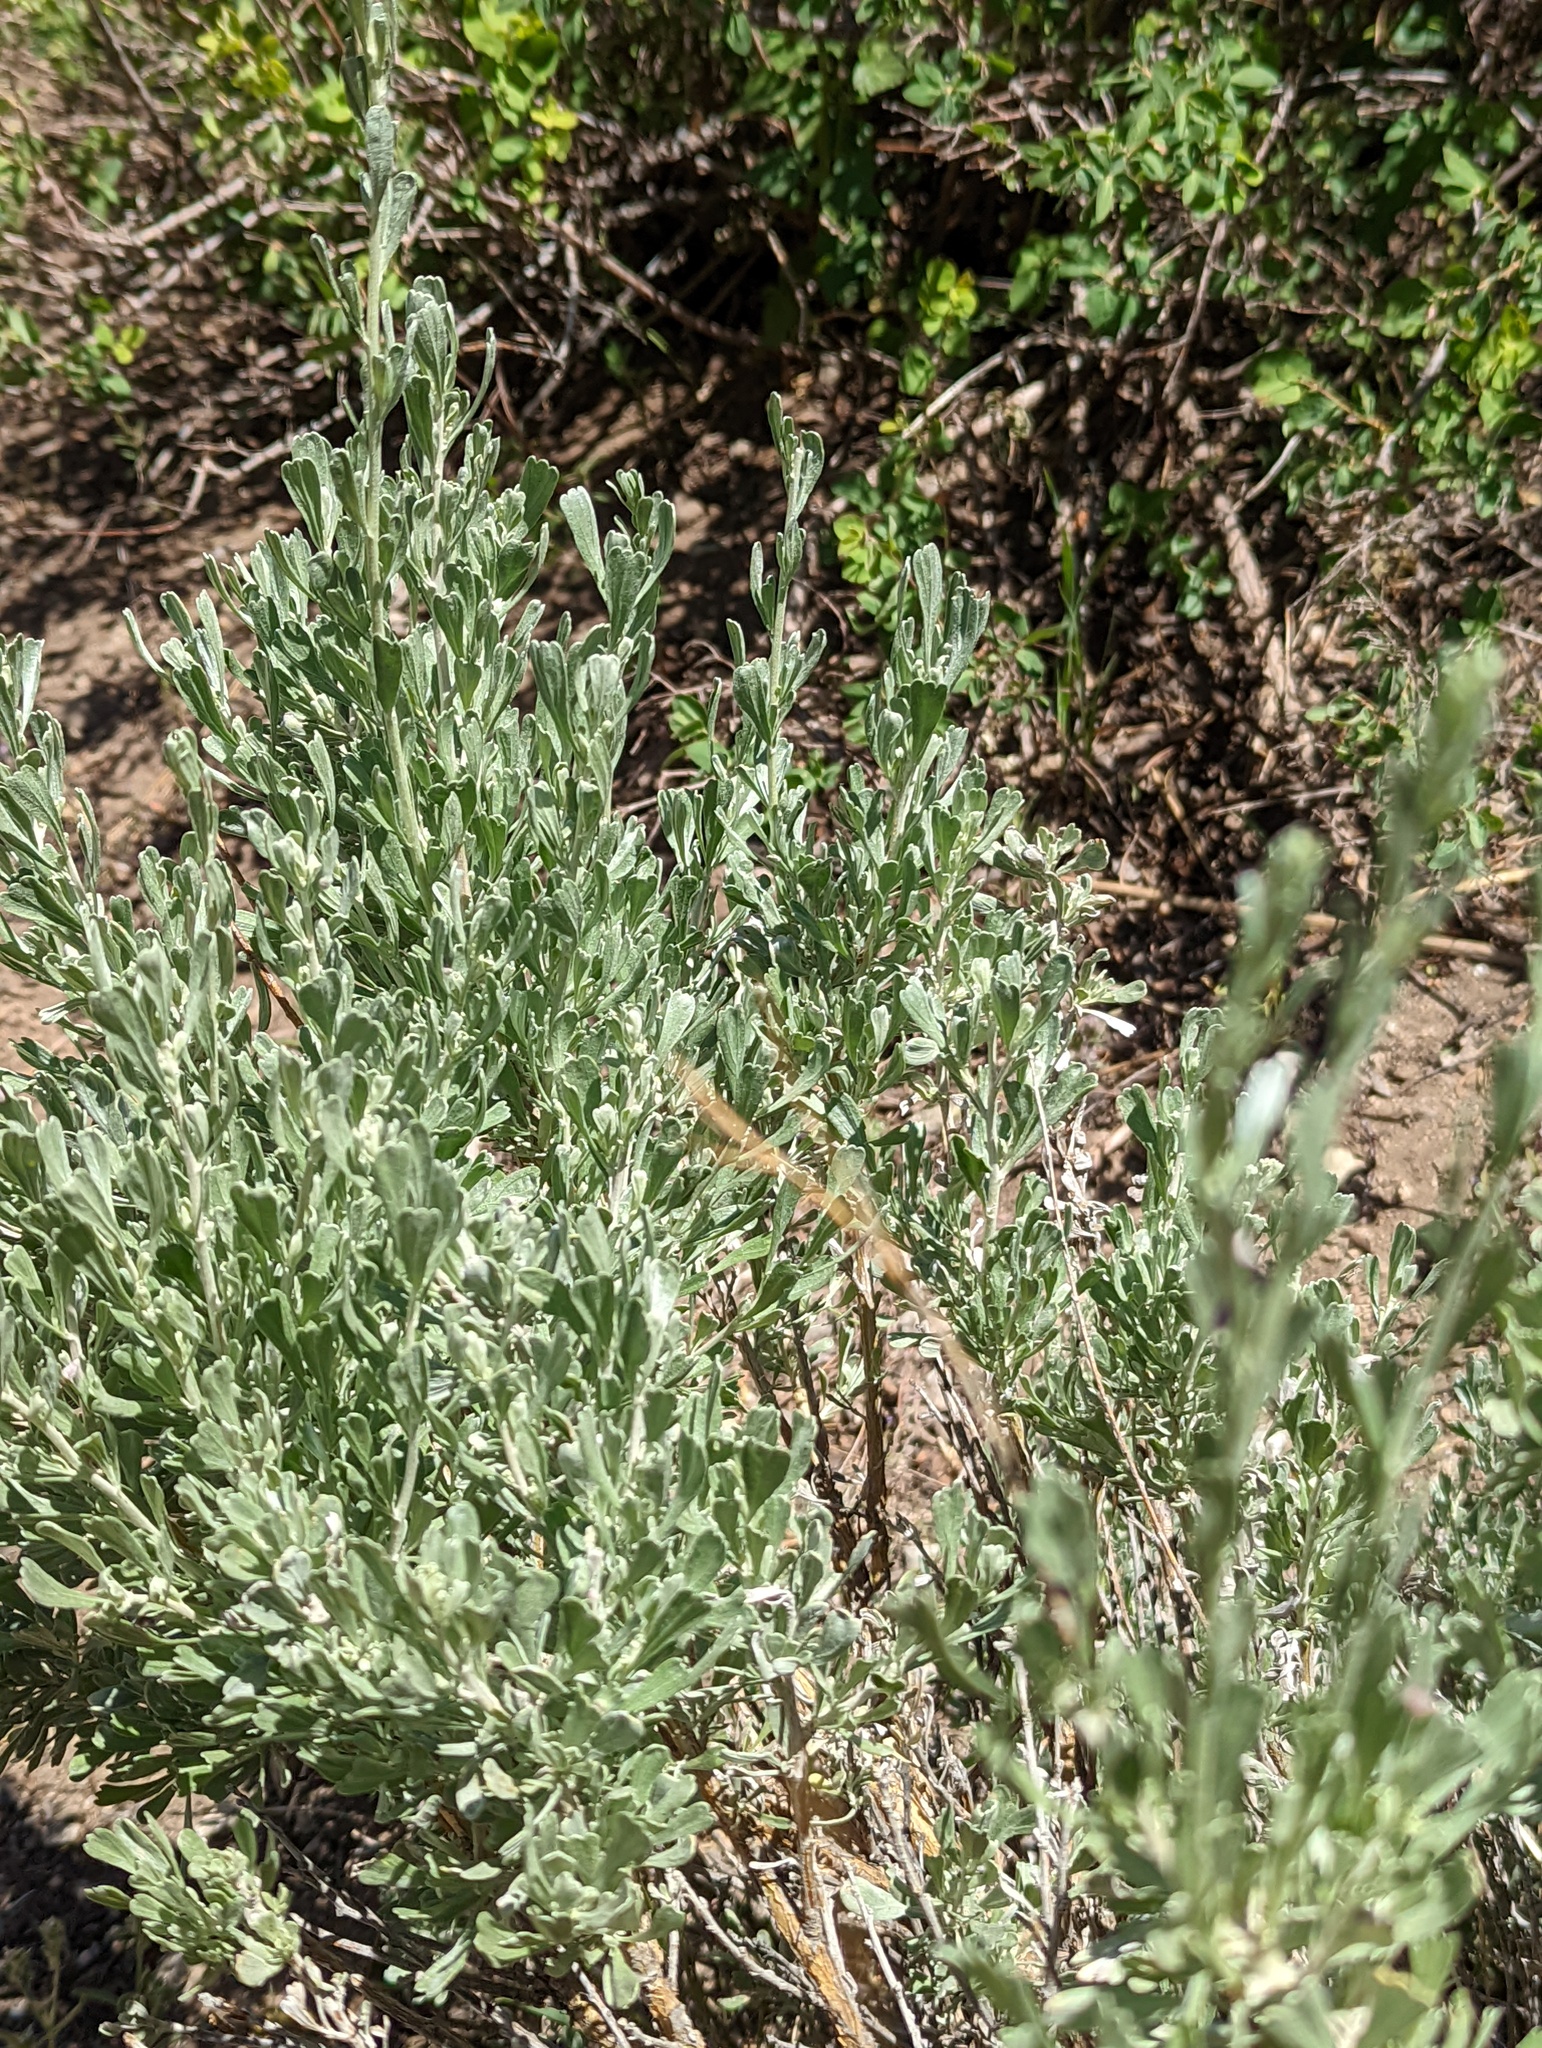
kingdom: Plantae
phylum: Tracheophyta
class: Magnoliopsida
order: Asterales
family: Asteraceae
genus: Artemisia
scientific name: Artemisia tridentata
